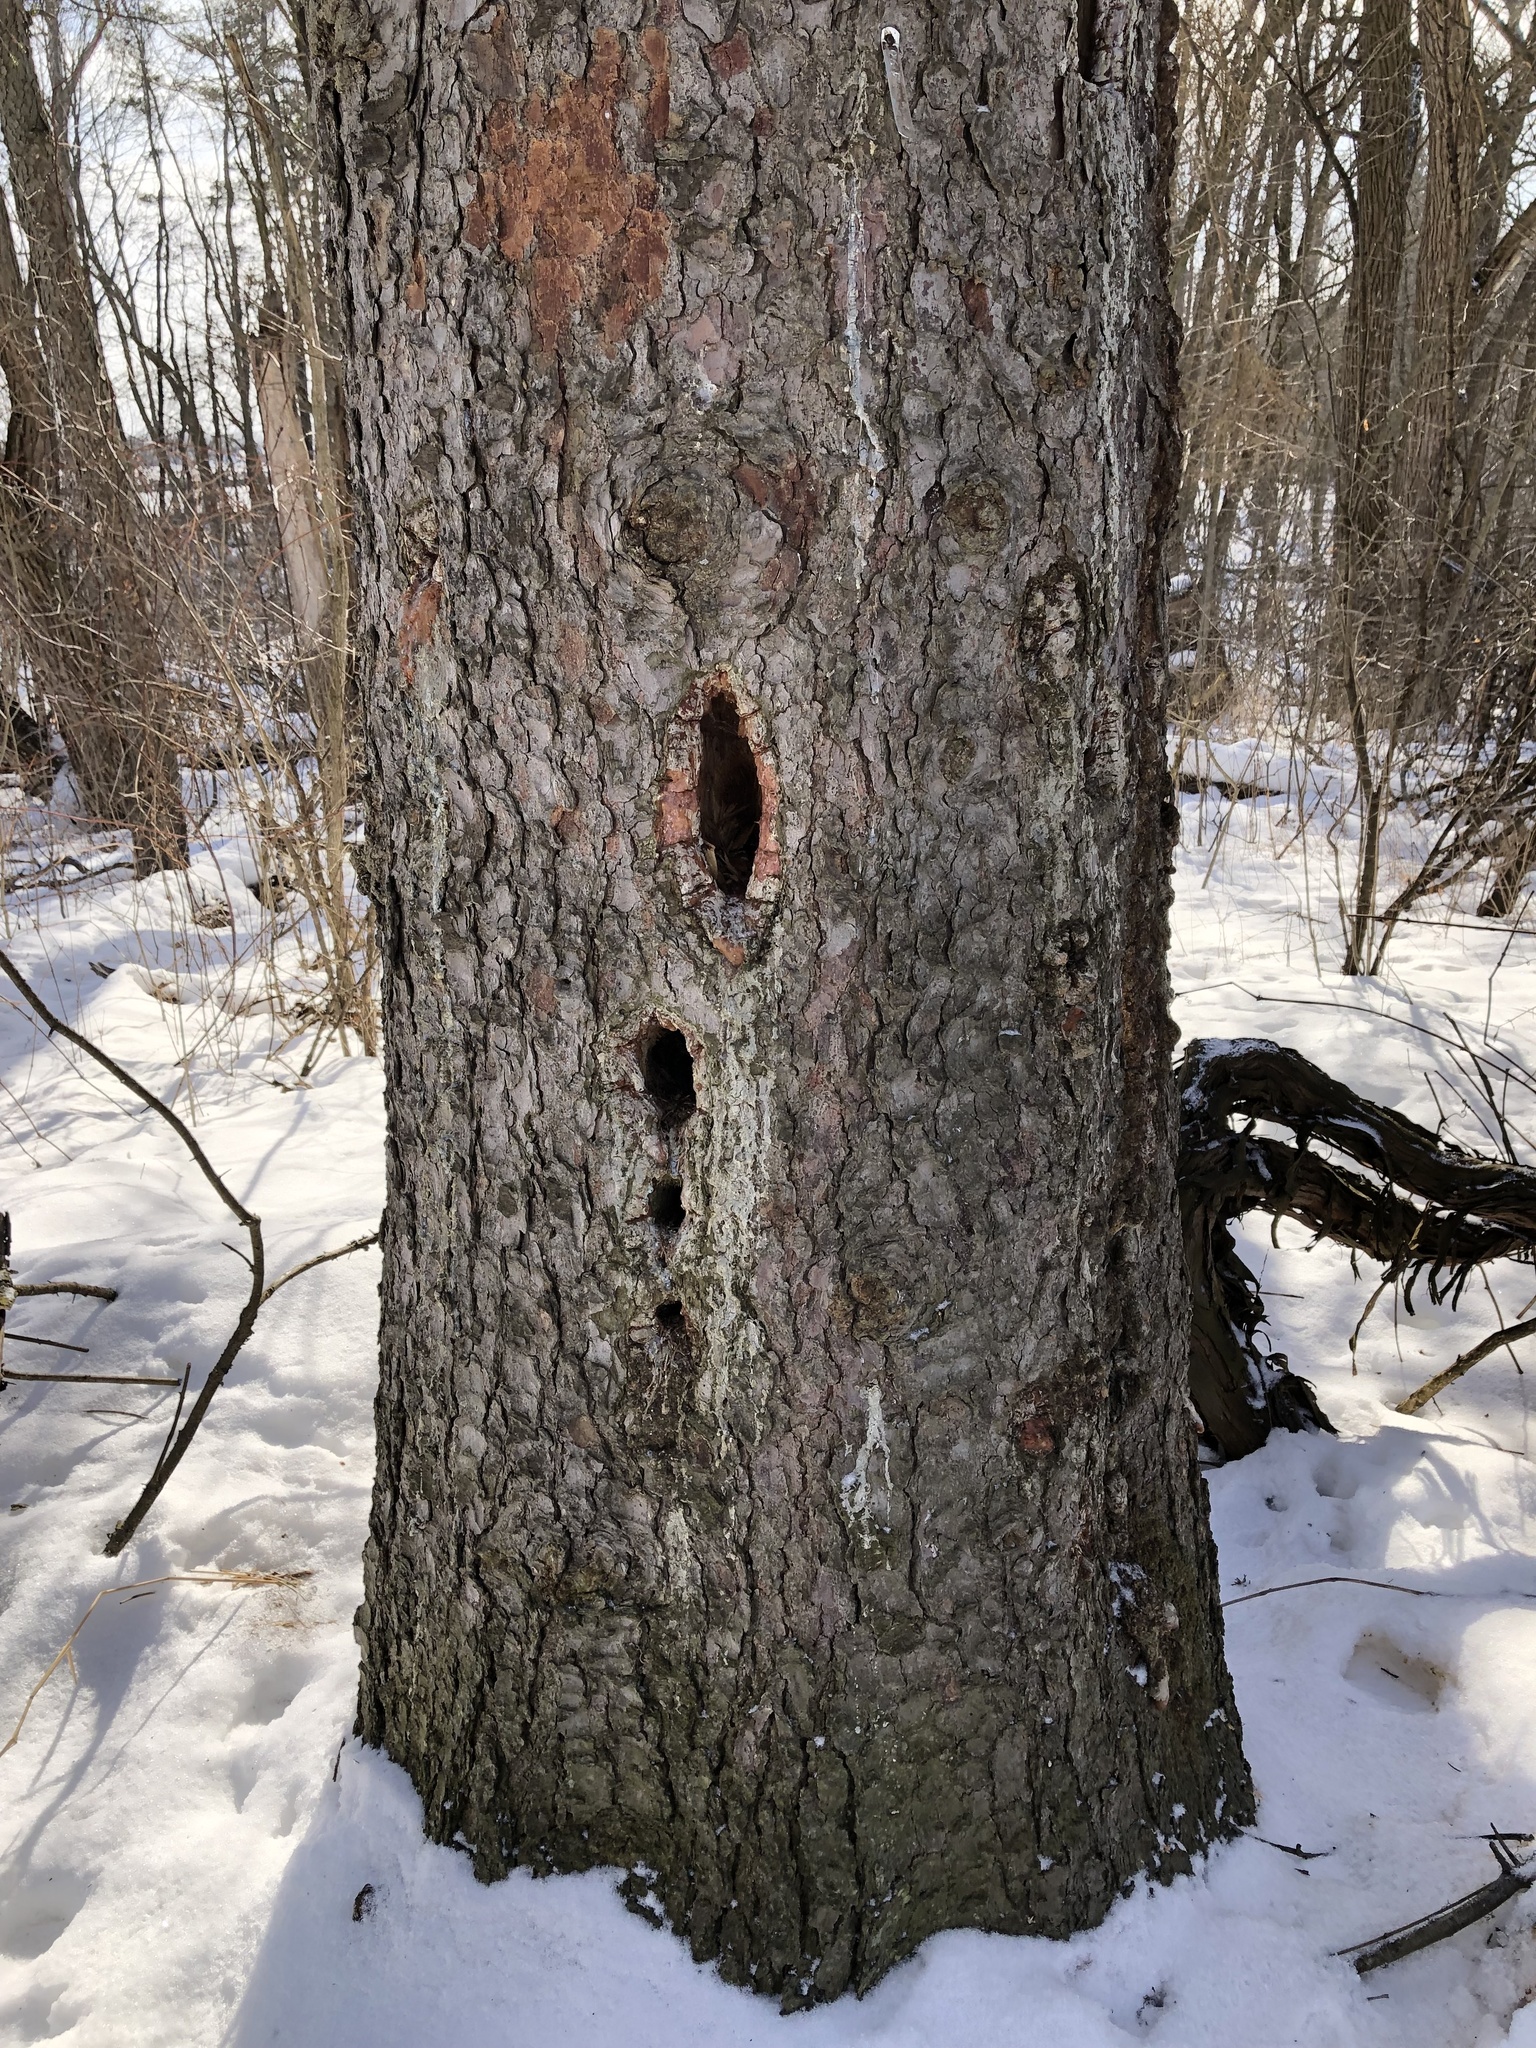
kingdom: Animalia
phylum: Chordata
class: Aves
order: Piciformes
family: Picidae
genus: Dryocopus
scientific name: Dryocopus pileatus
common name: Pileated woodpecker
